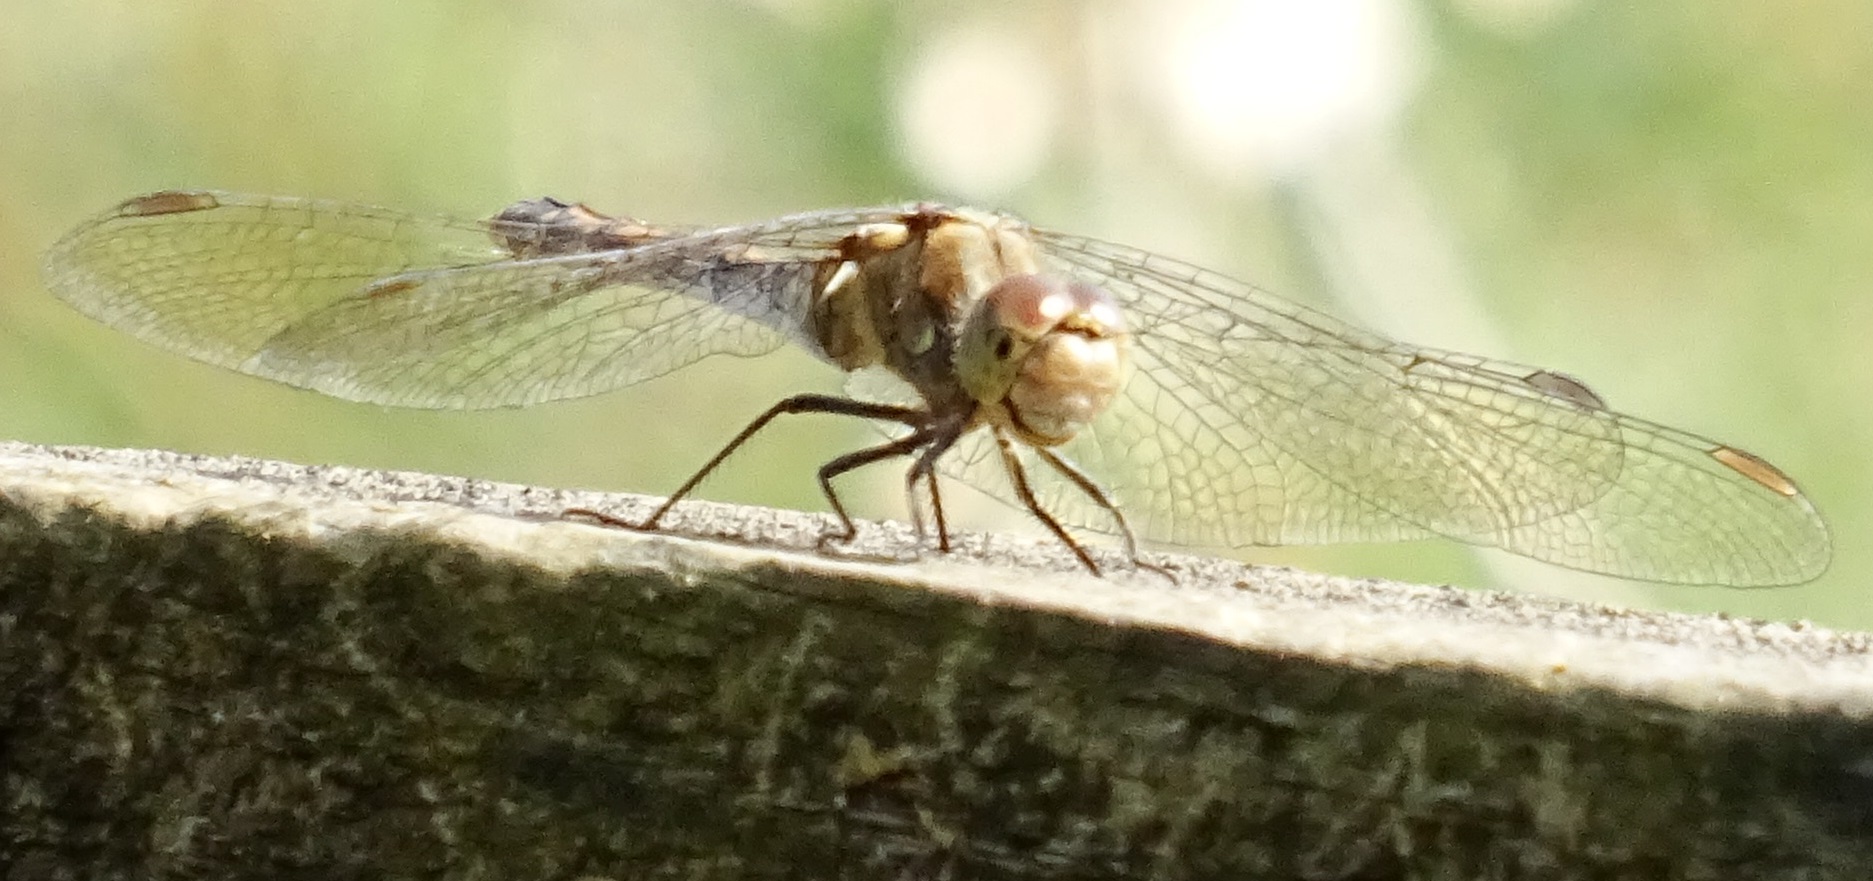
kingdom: Animalia
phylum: Arthropoda
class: Insecta
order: Odonata
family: Libellulidae
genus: Sympetrum
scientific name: Sympetrum striolatum
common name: Common darter
